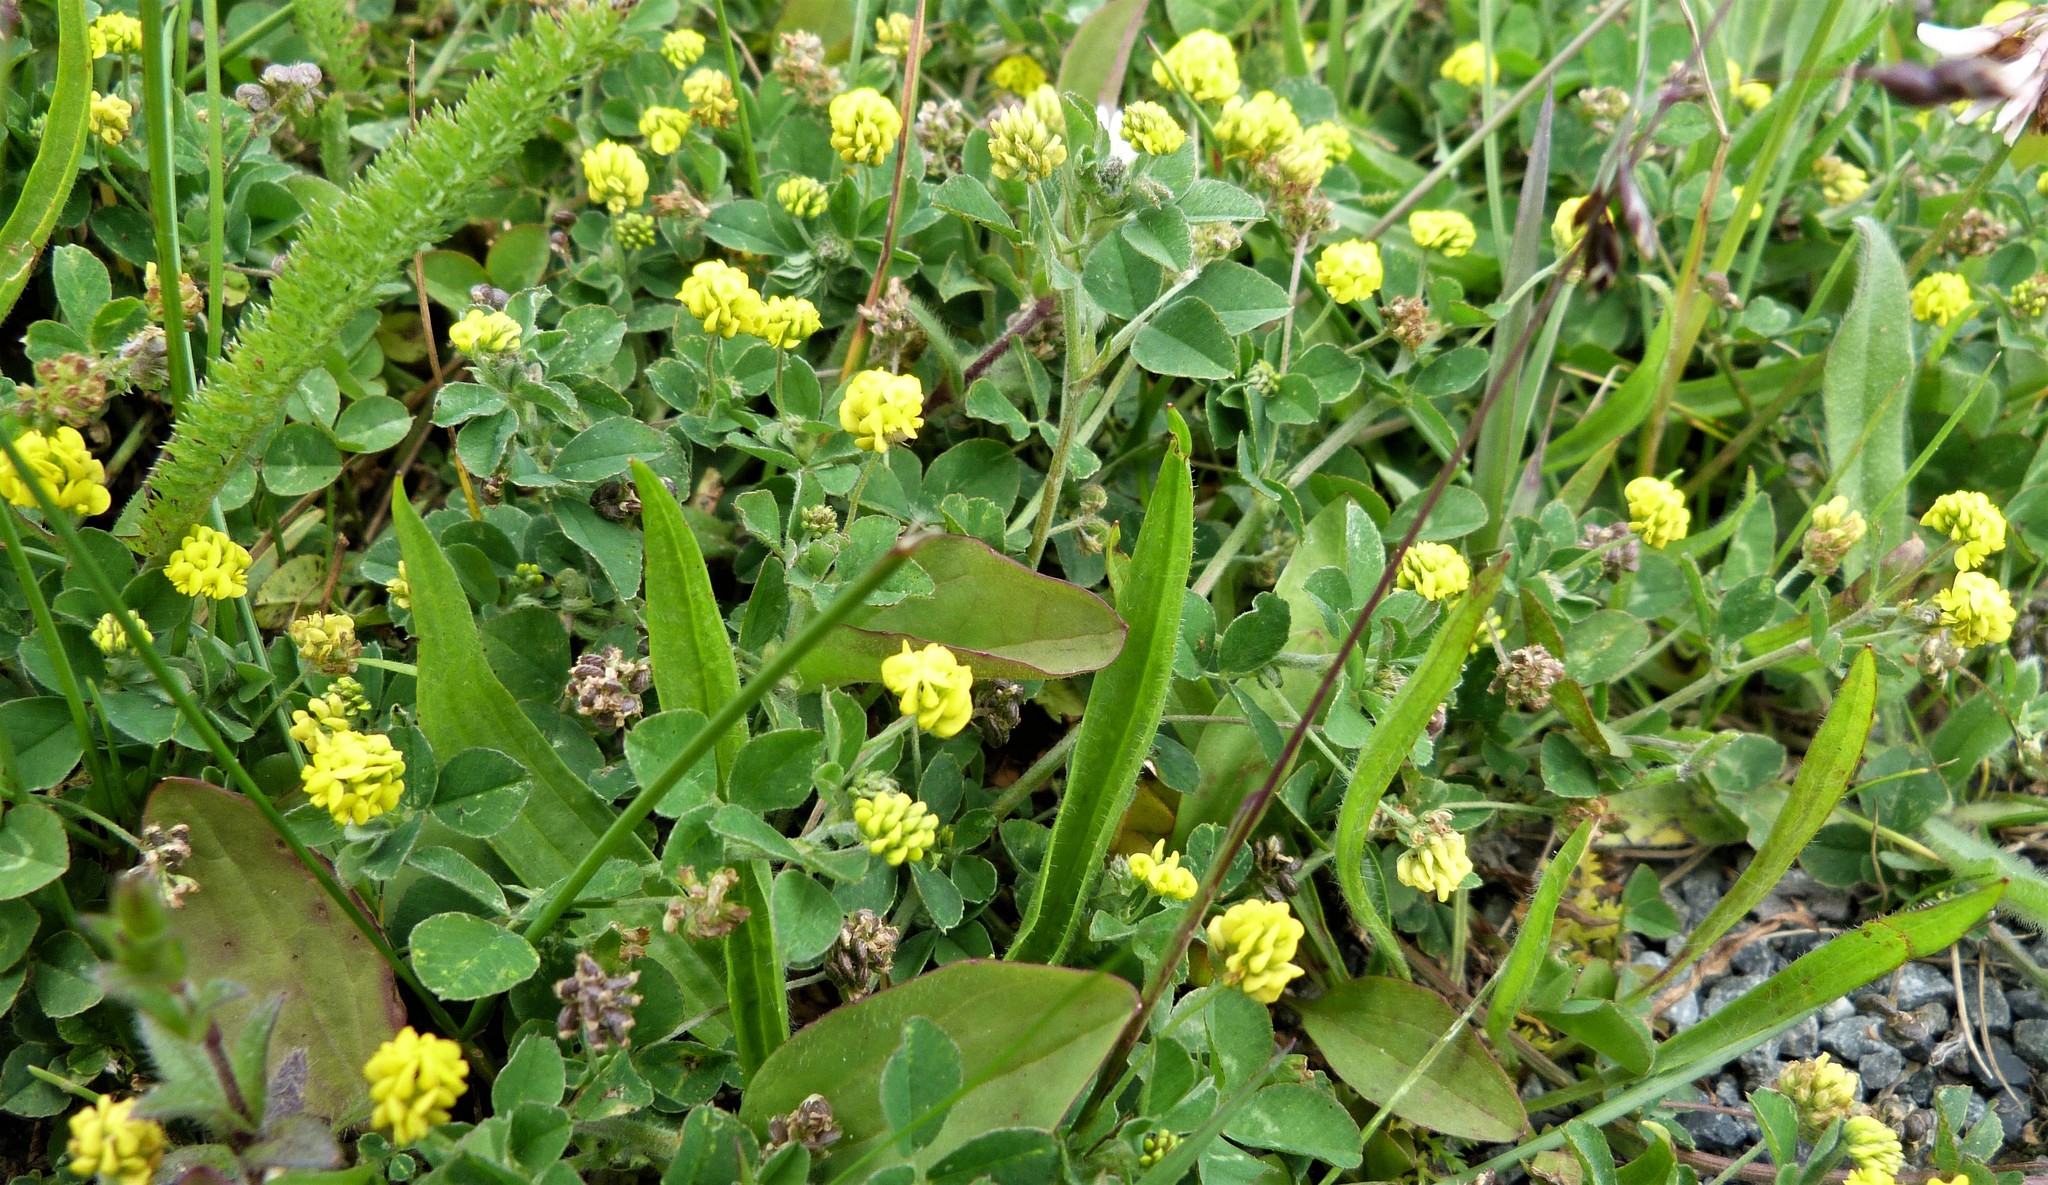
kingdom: Plantae
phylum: Tracheophyta
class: Magnoliopsida
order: Fabales
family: Fabaceae
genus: Medicago
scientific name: Medicago lupulina
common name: Black medick
